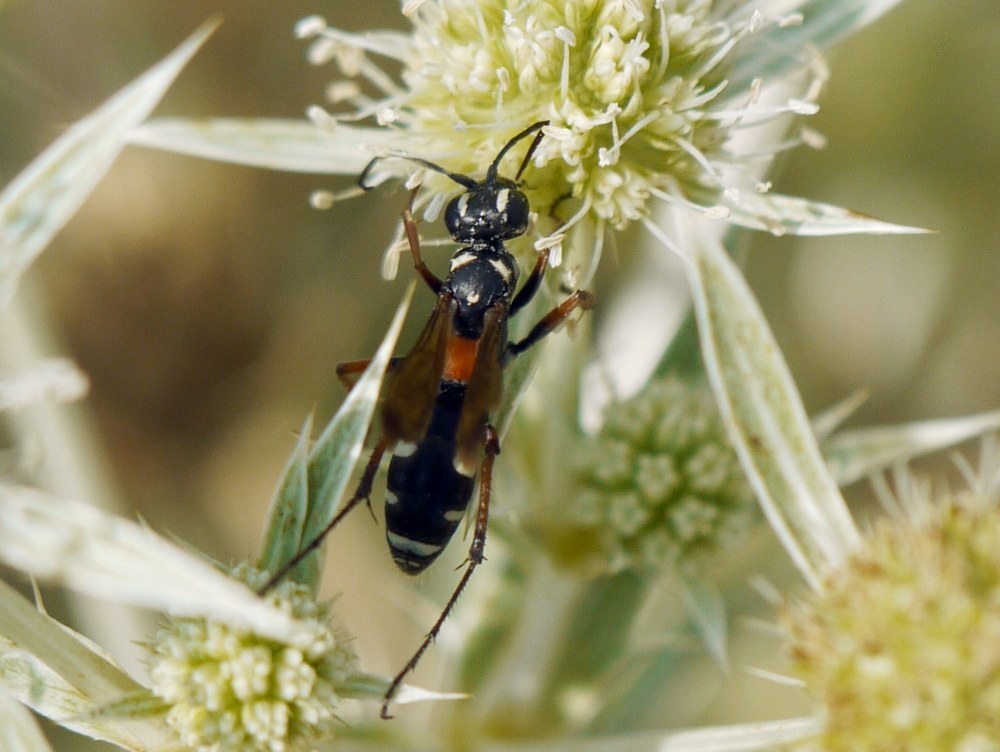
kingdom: Animalia
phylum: Arthropoda
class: Insecta
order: Hymenoptera
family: Pompilidae
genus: Cryptocheilus
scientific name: Cryptocheilus fabricii
